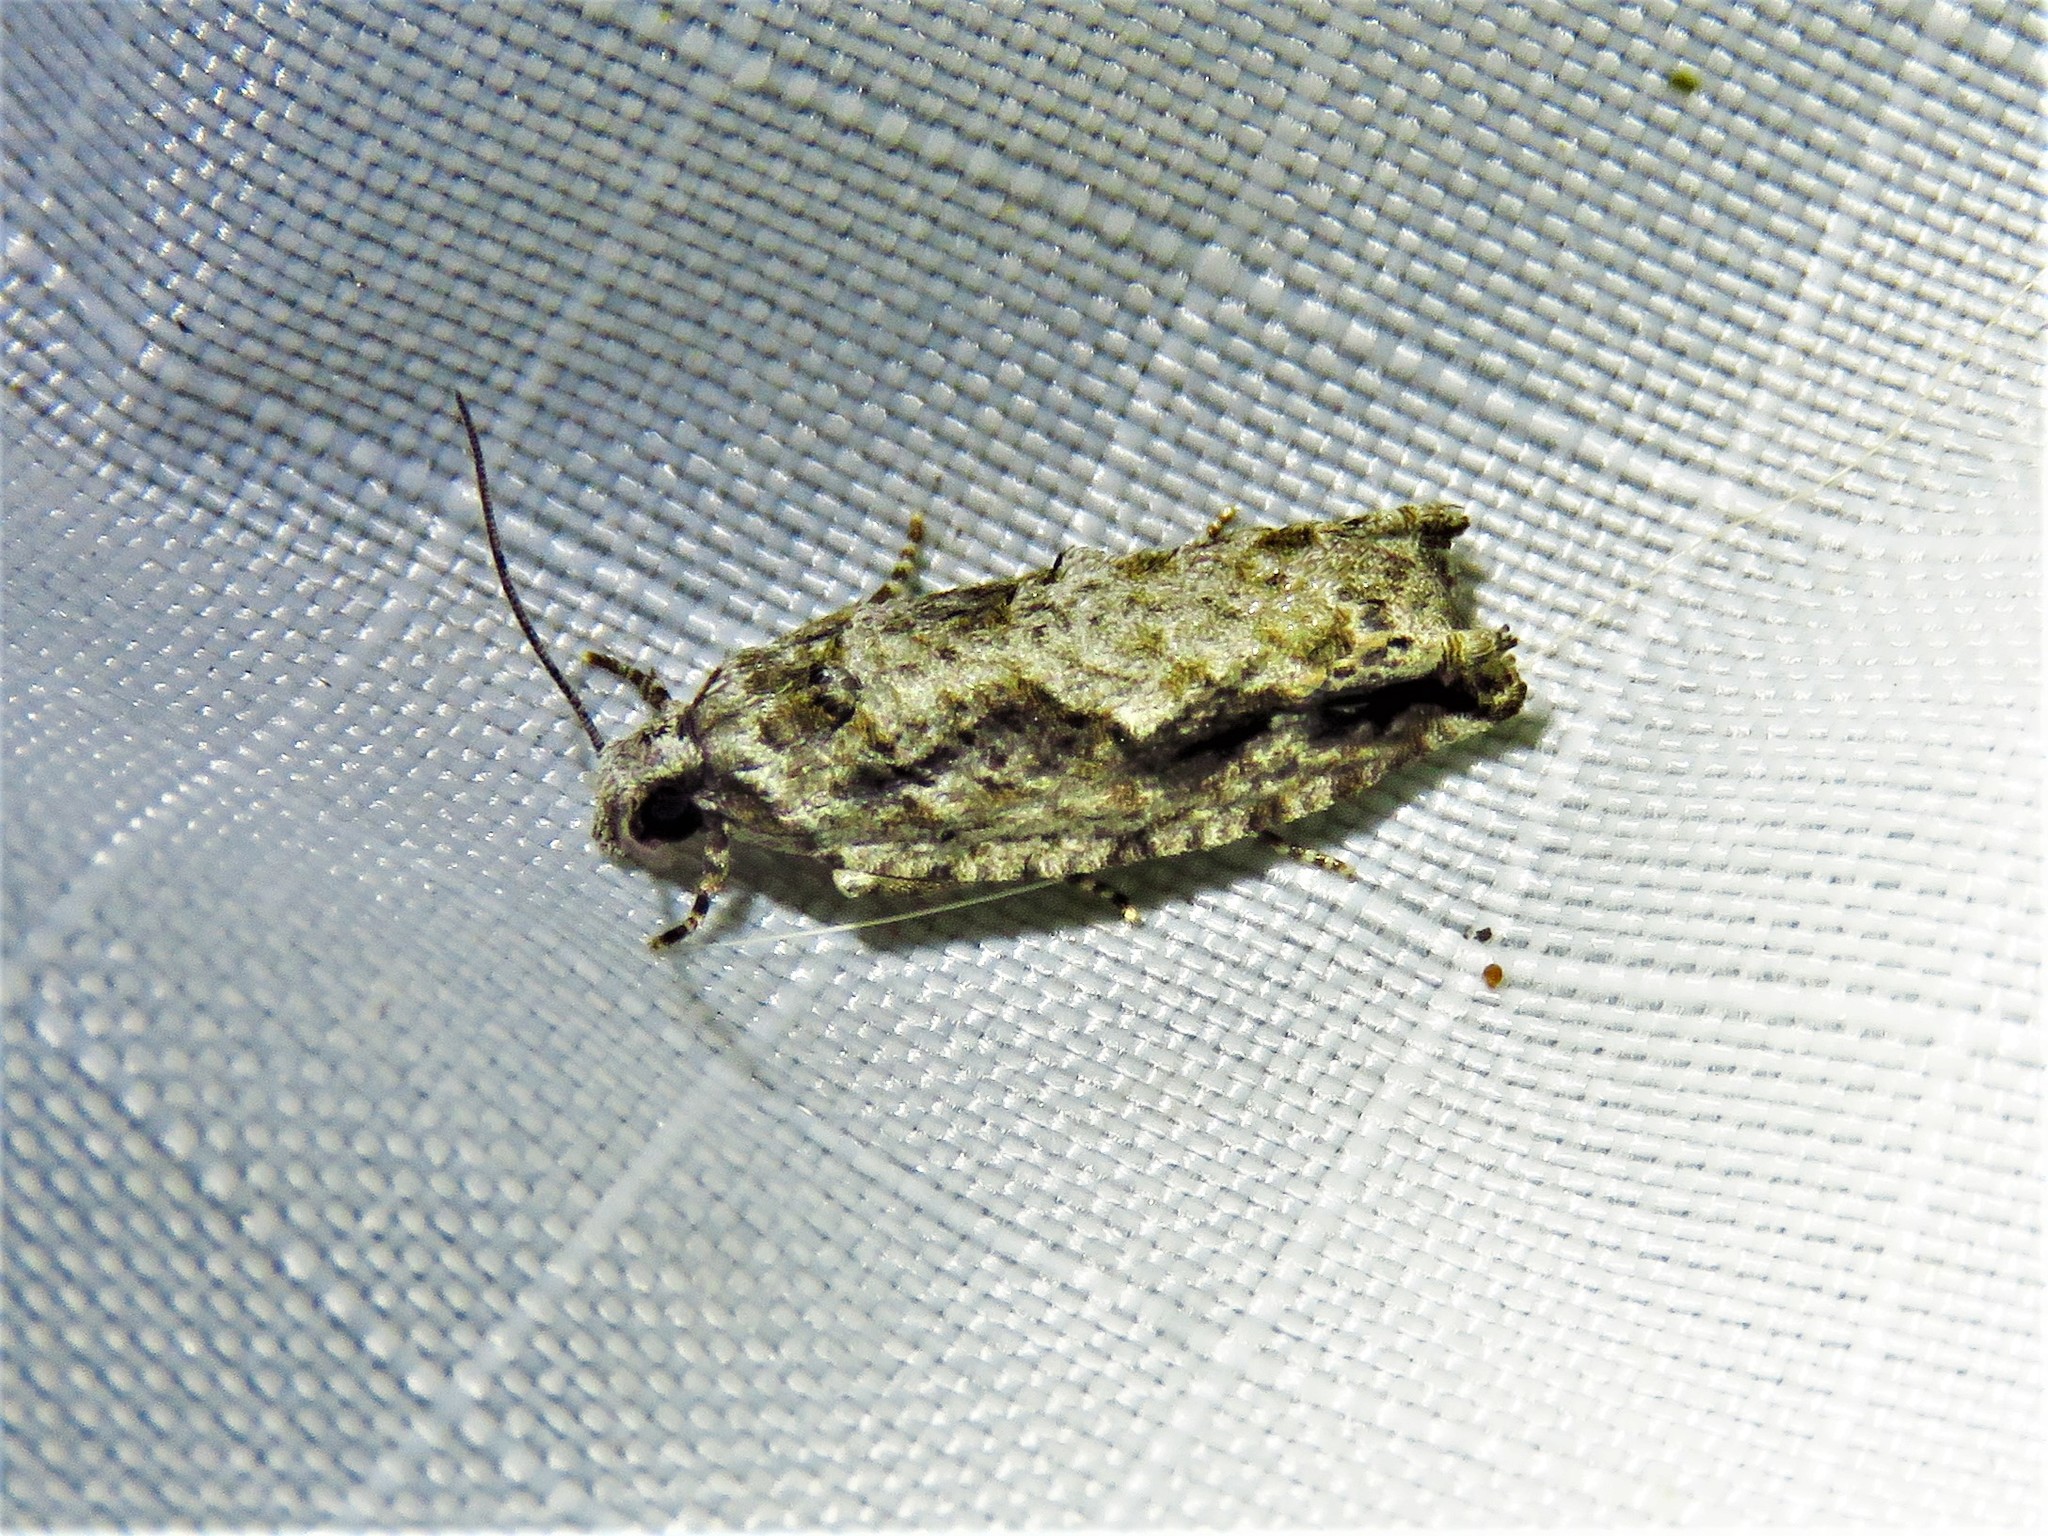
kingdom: Animalia
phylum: Arthropoda
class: Insecta
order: Lepidoptera
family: Tortricidae
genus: Gretchena
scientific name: Gretchena bolliana
